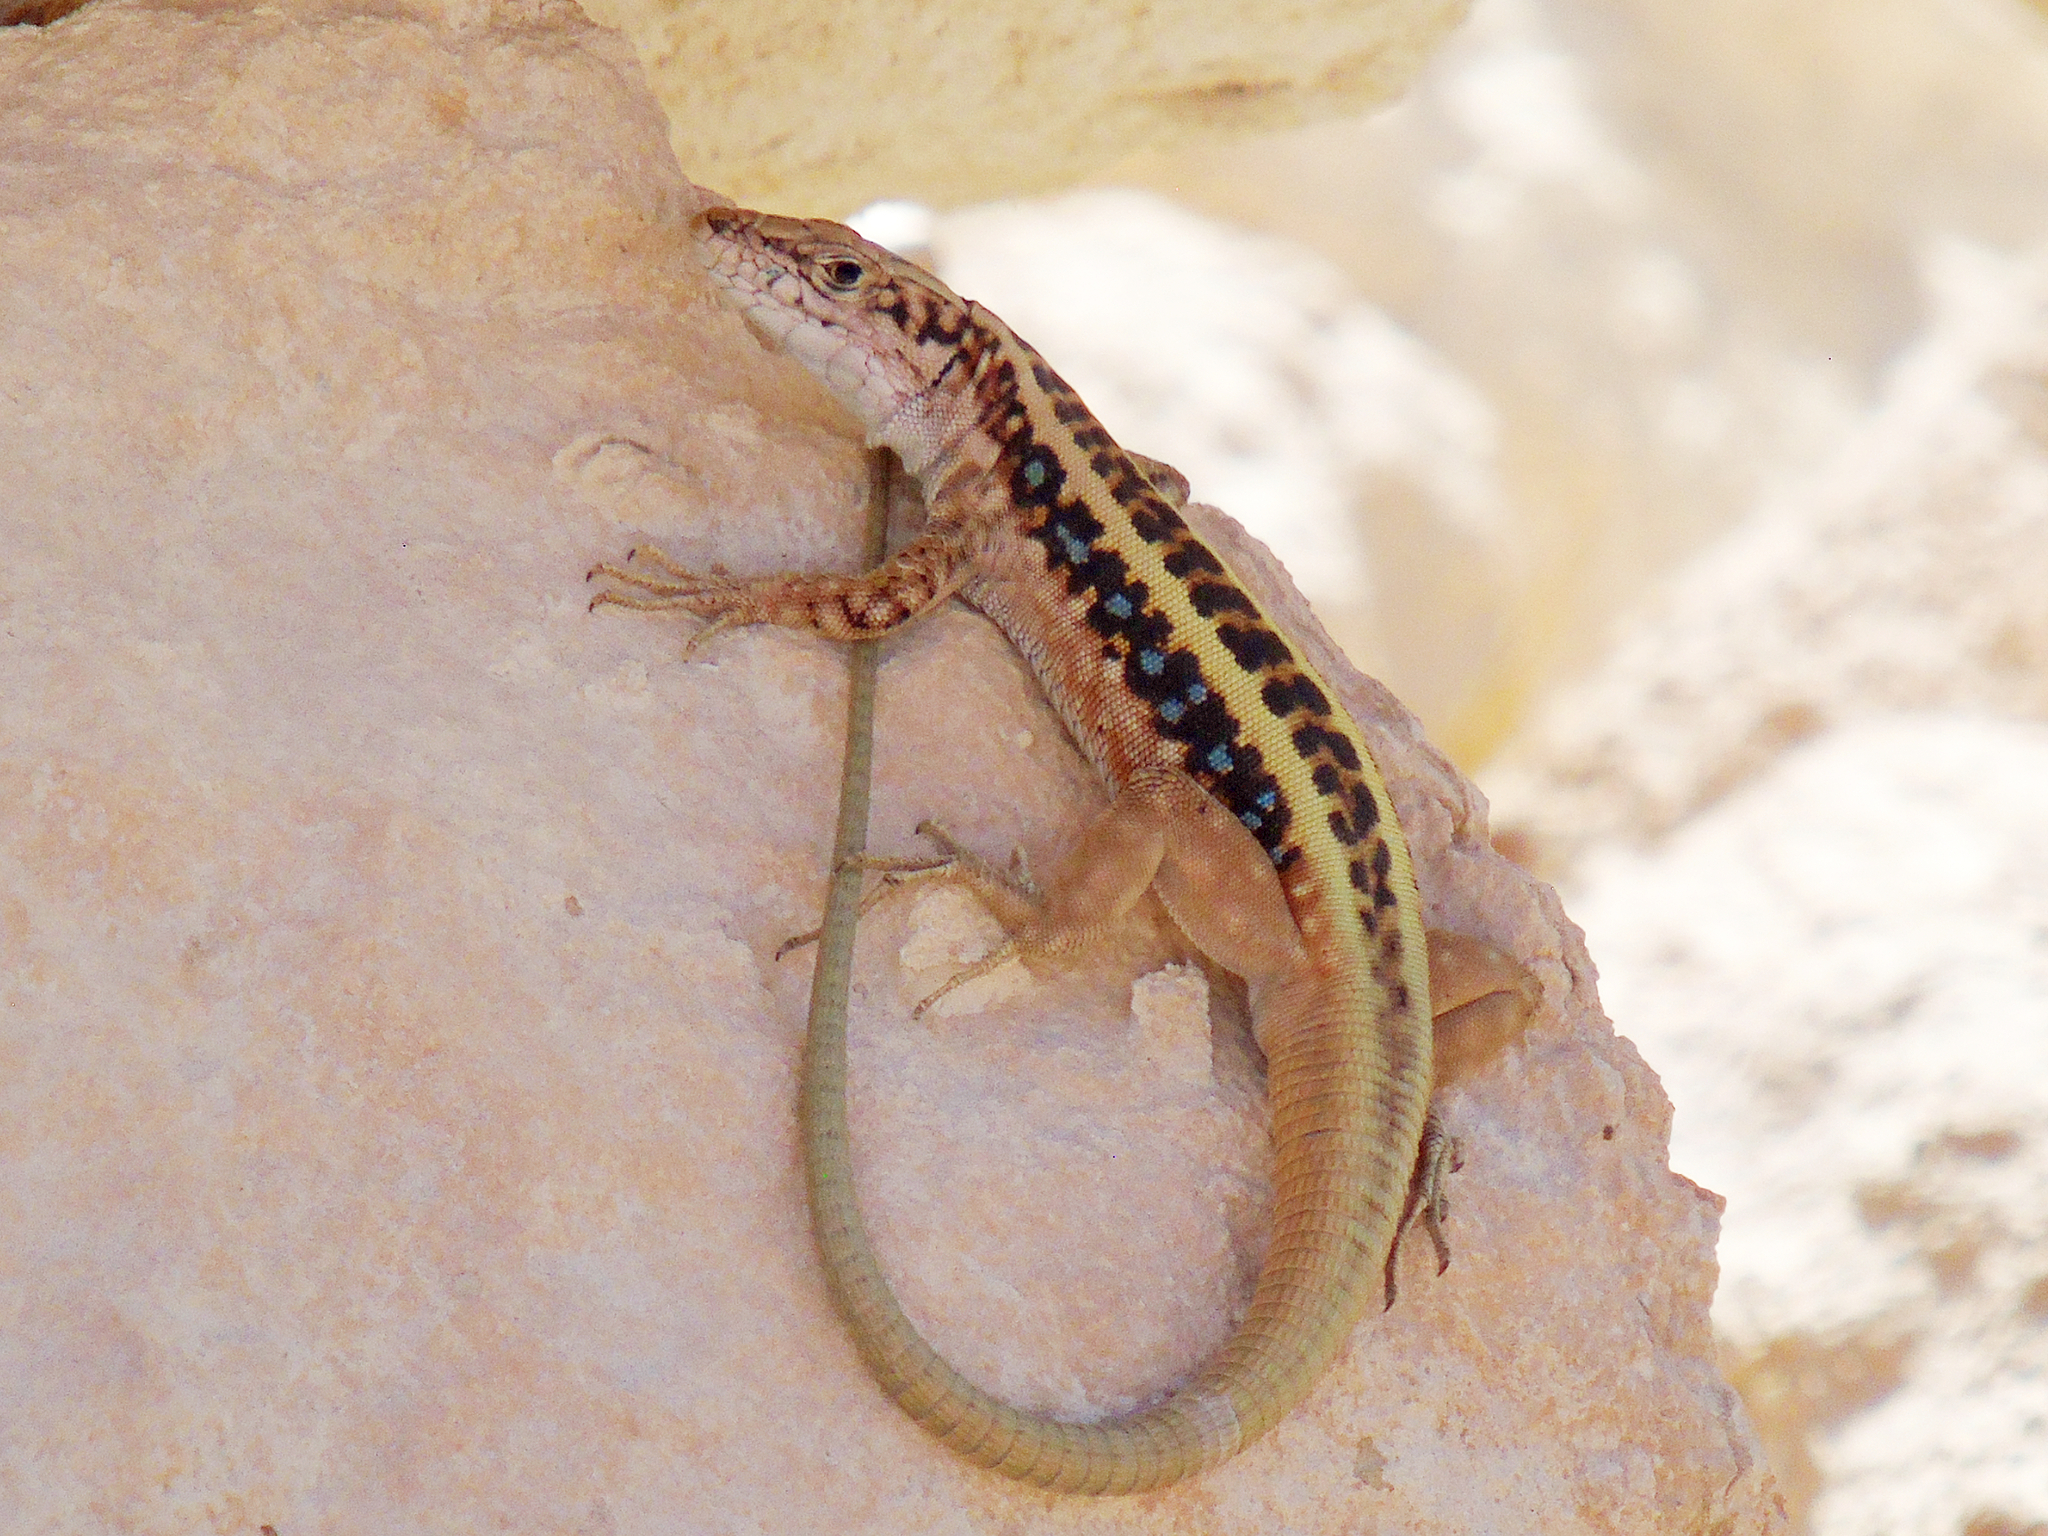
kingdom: Animalia
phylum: Chordata
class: Squamata
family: Lacertidae
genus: Apathya
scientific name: Apathya cappadocica
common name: Anatolian lizard
